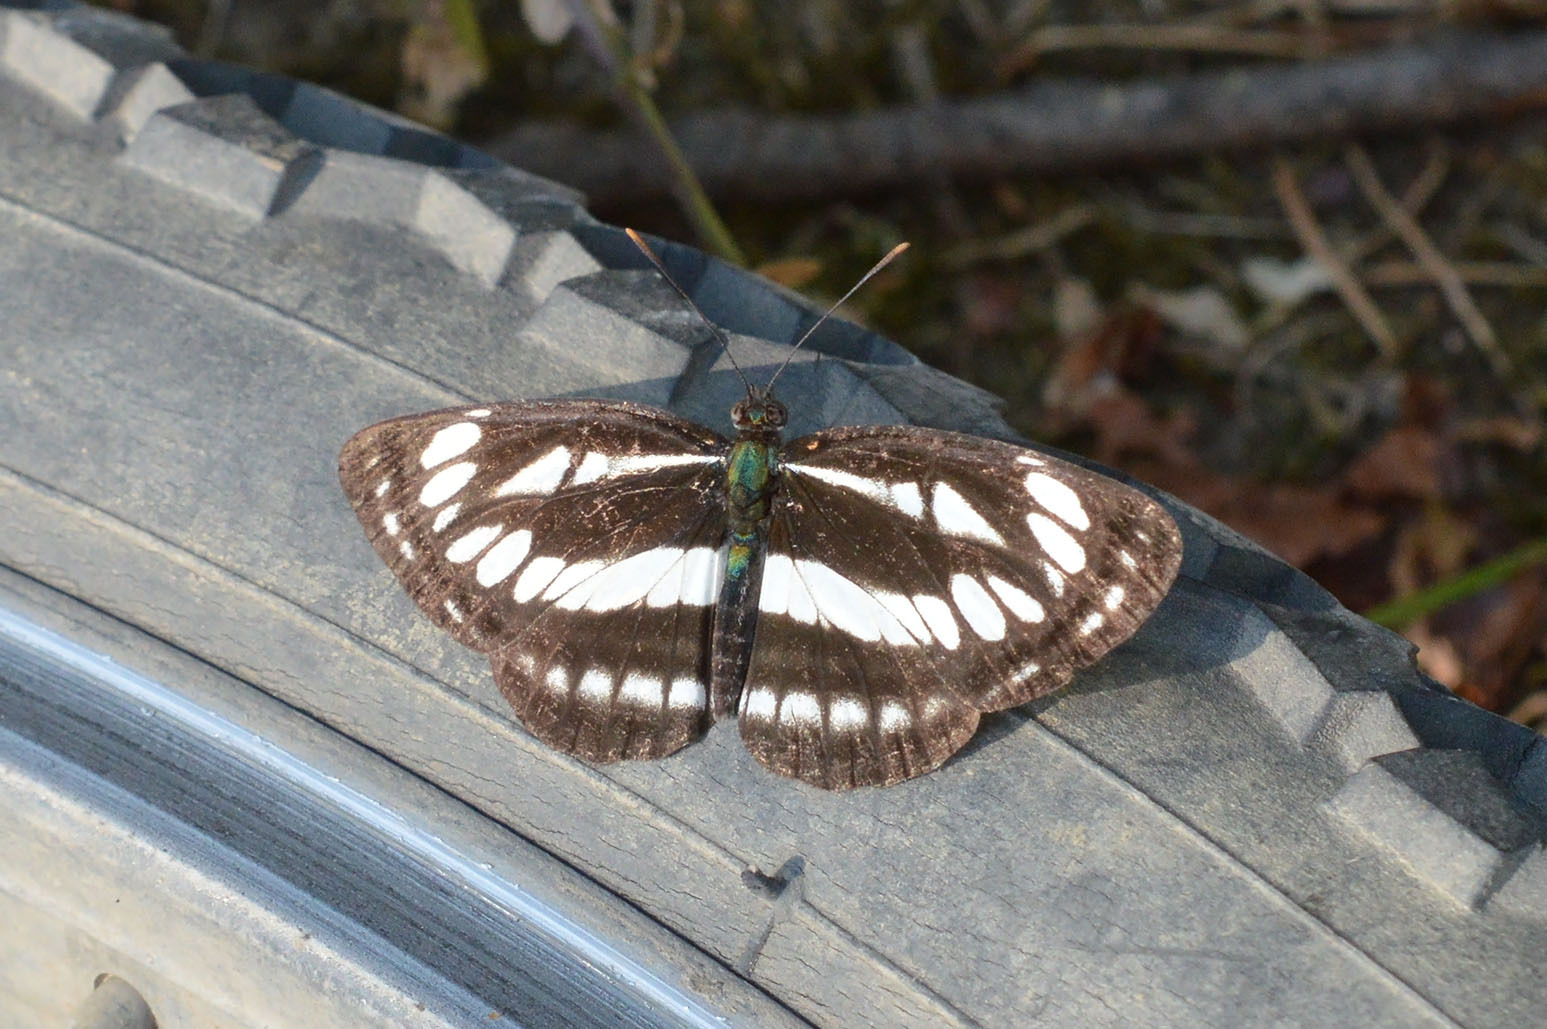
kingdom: Animalia
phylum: Arthropoda
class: Insecta
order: Lepidoptera
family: Nymphalidae
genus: Neptis
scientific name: Neptis sappho
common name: Common glider
